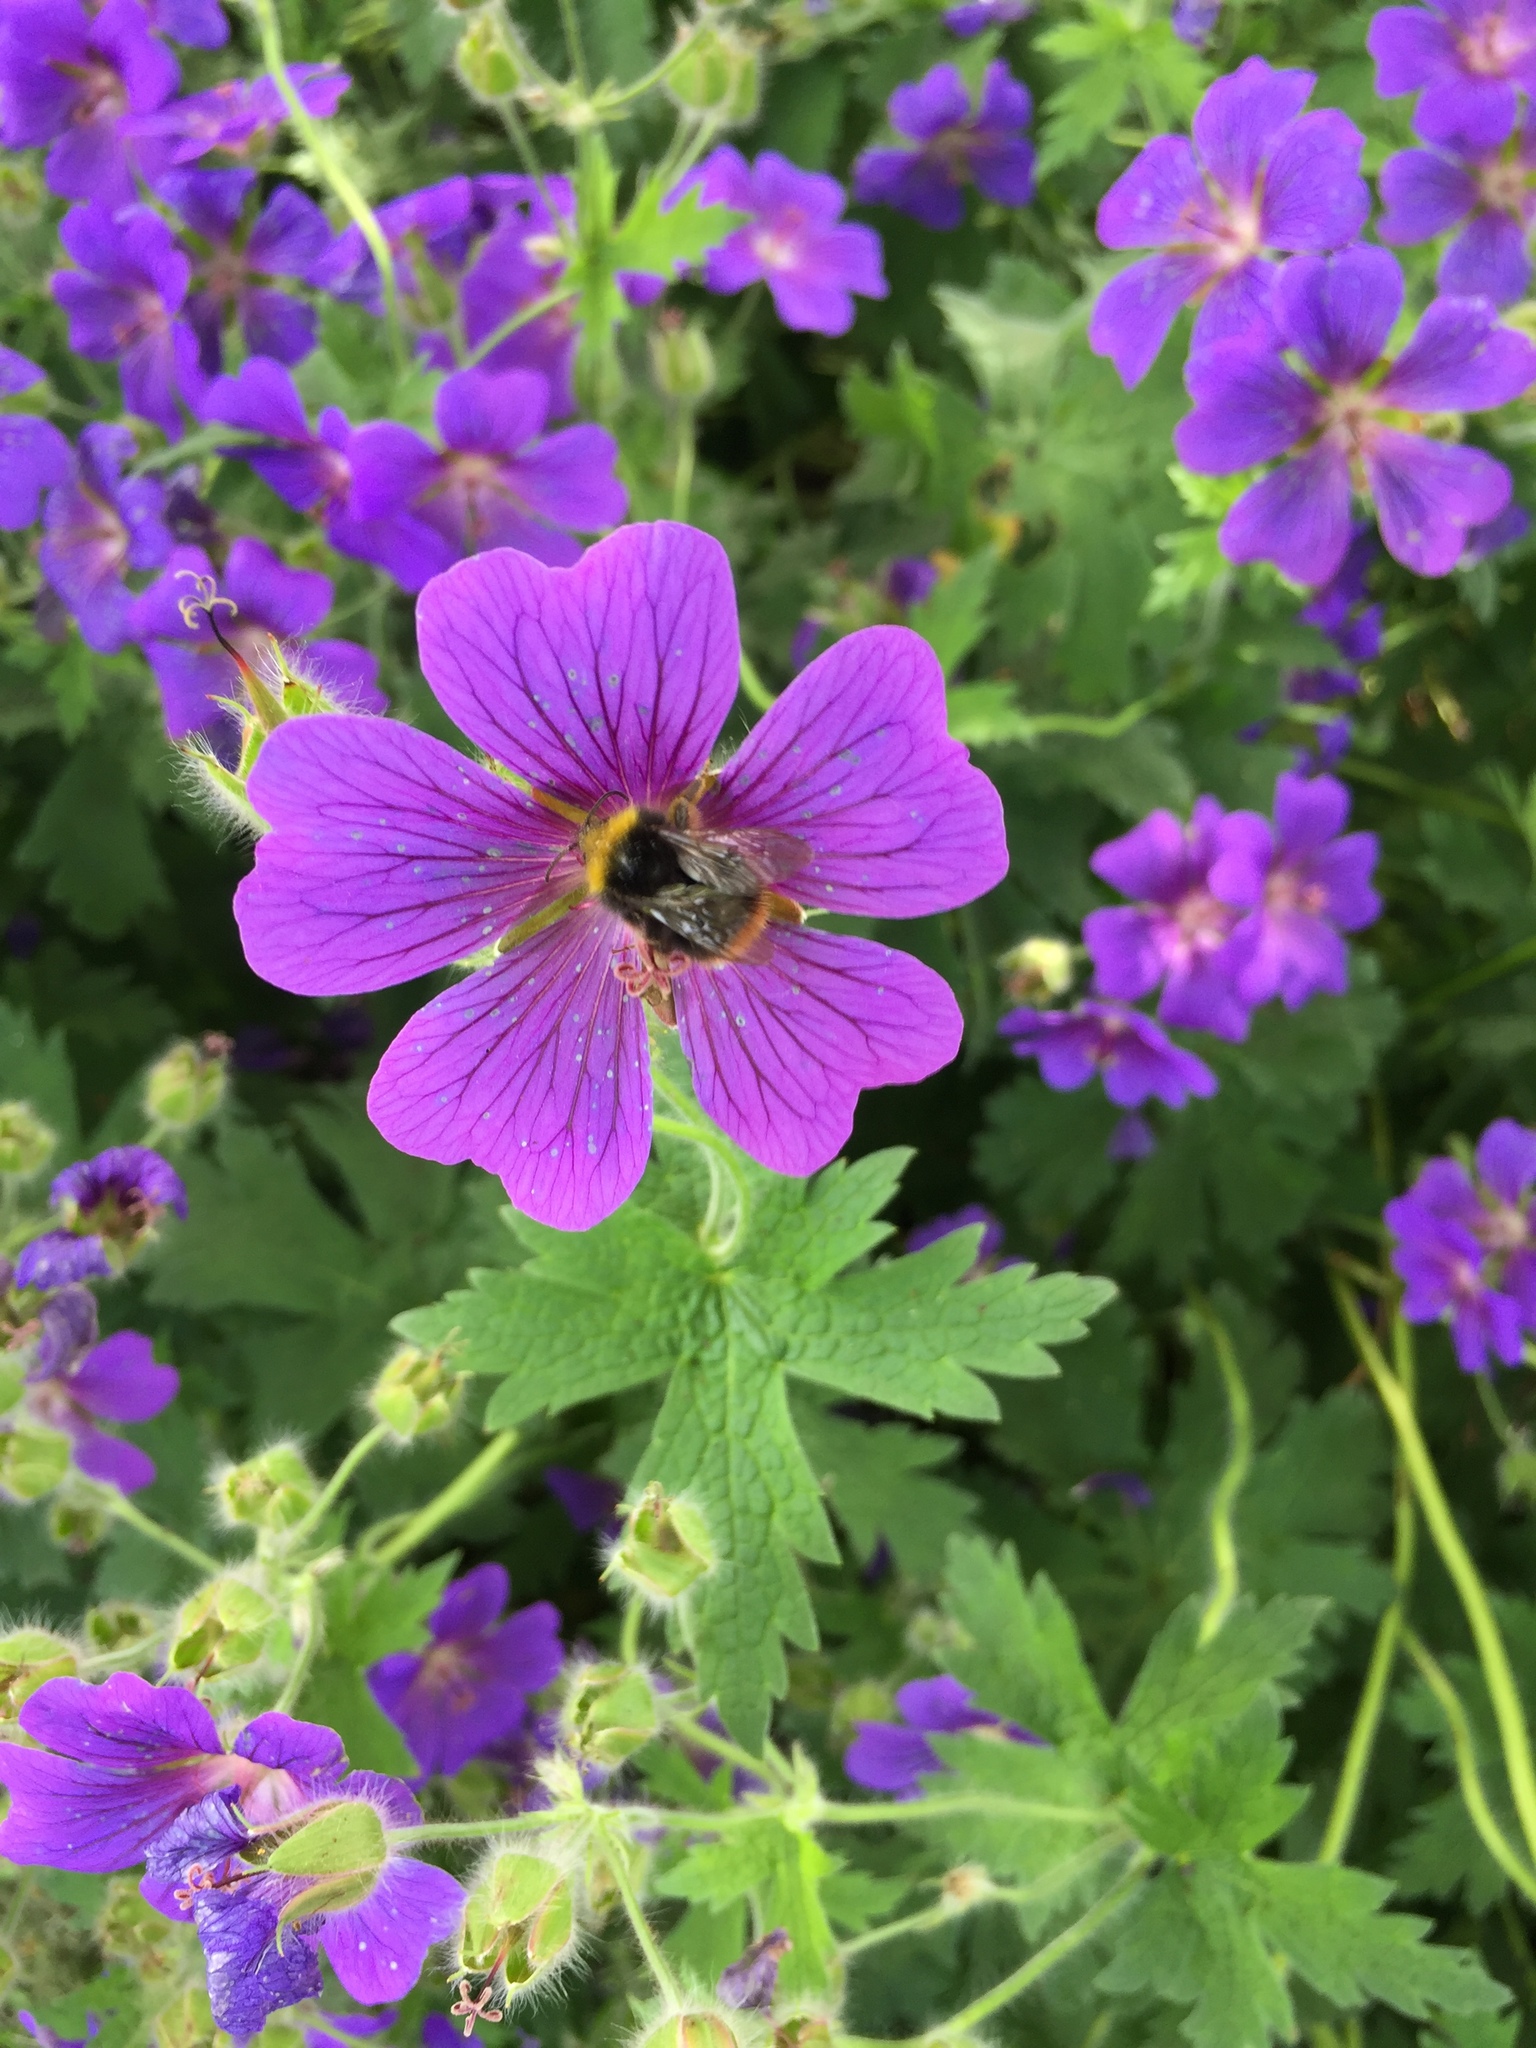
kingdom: Animalia
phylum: Arthropoda
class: Insecta
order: Hymenoptera
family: Apidae
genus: Bombus
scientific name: Bombus pratorum
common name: Early humble-bee
